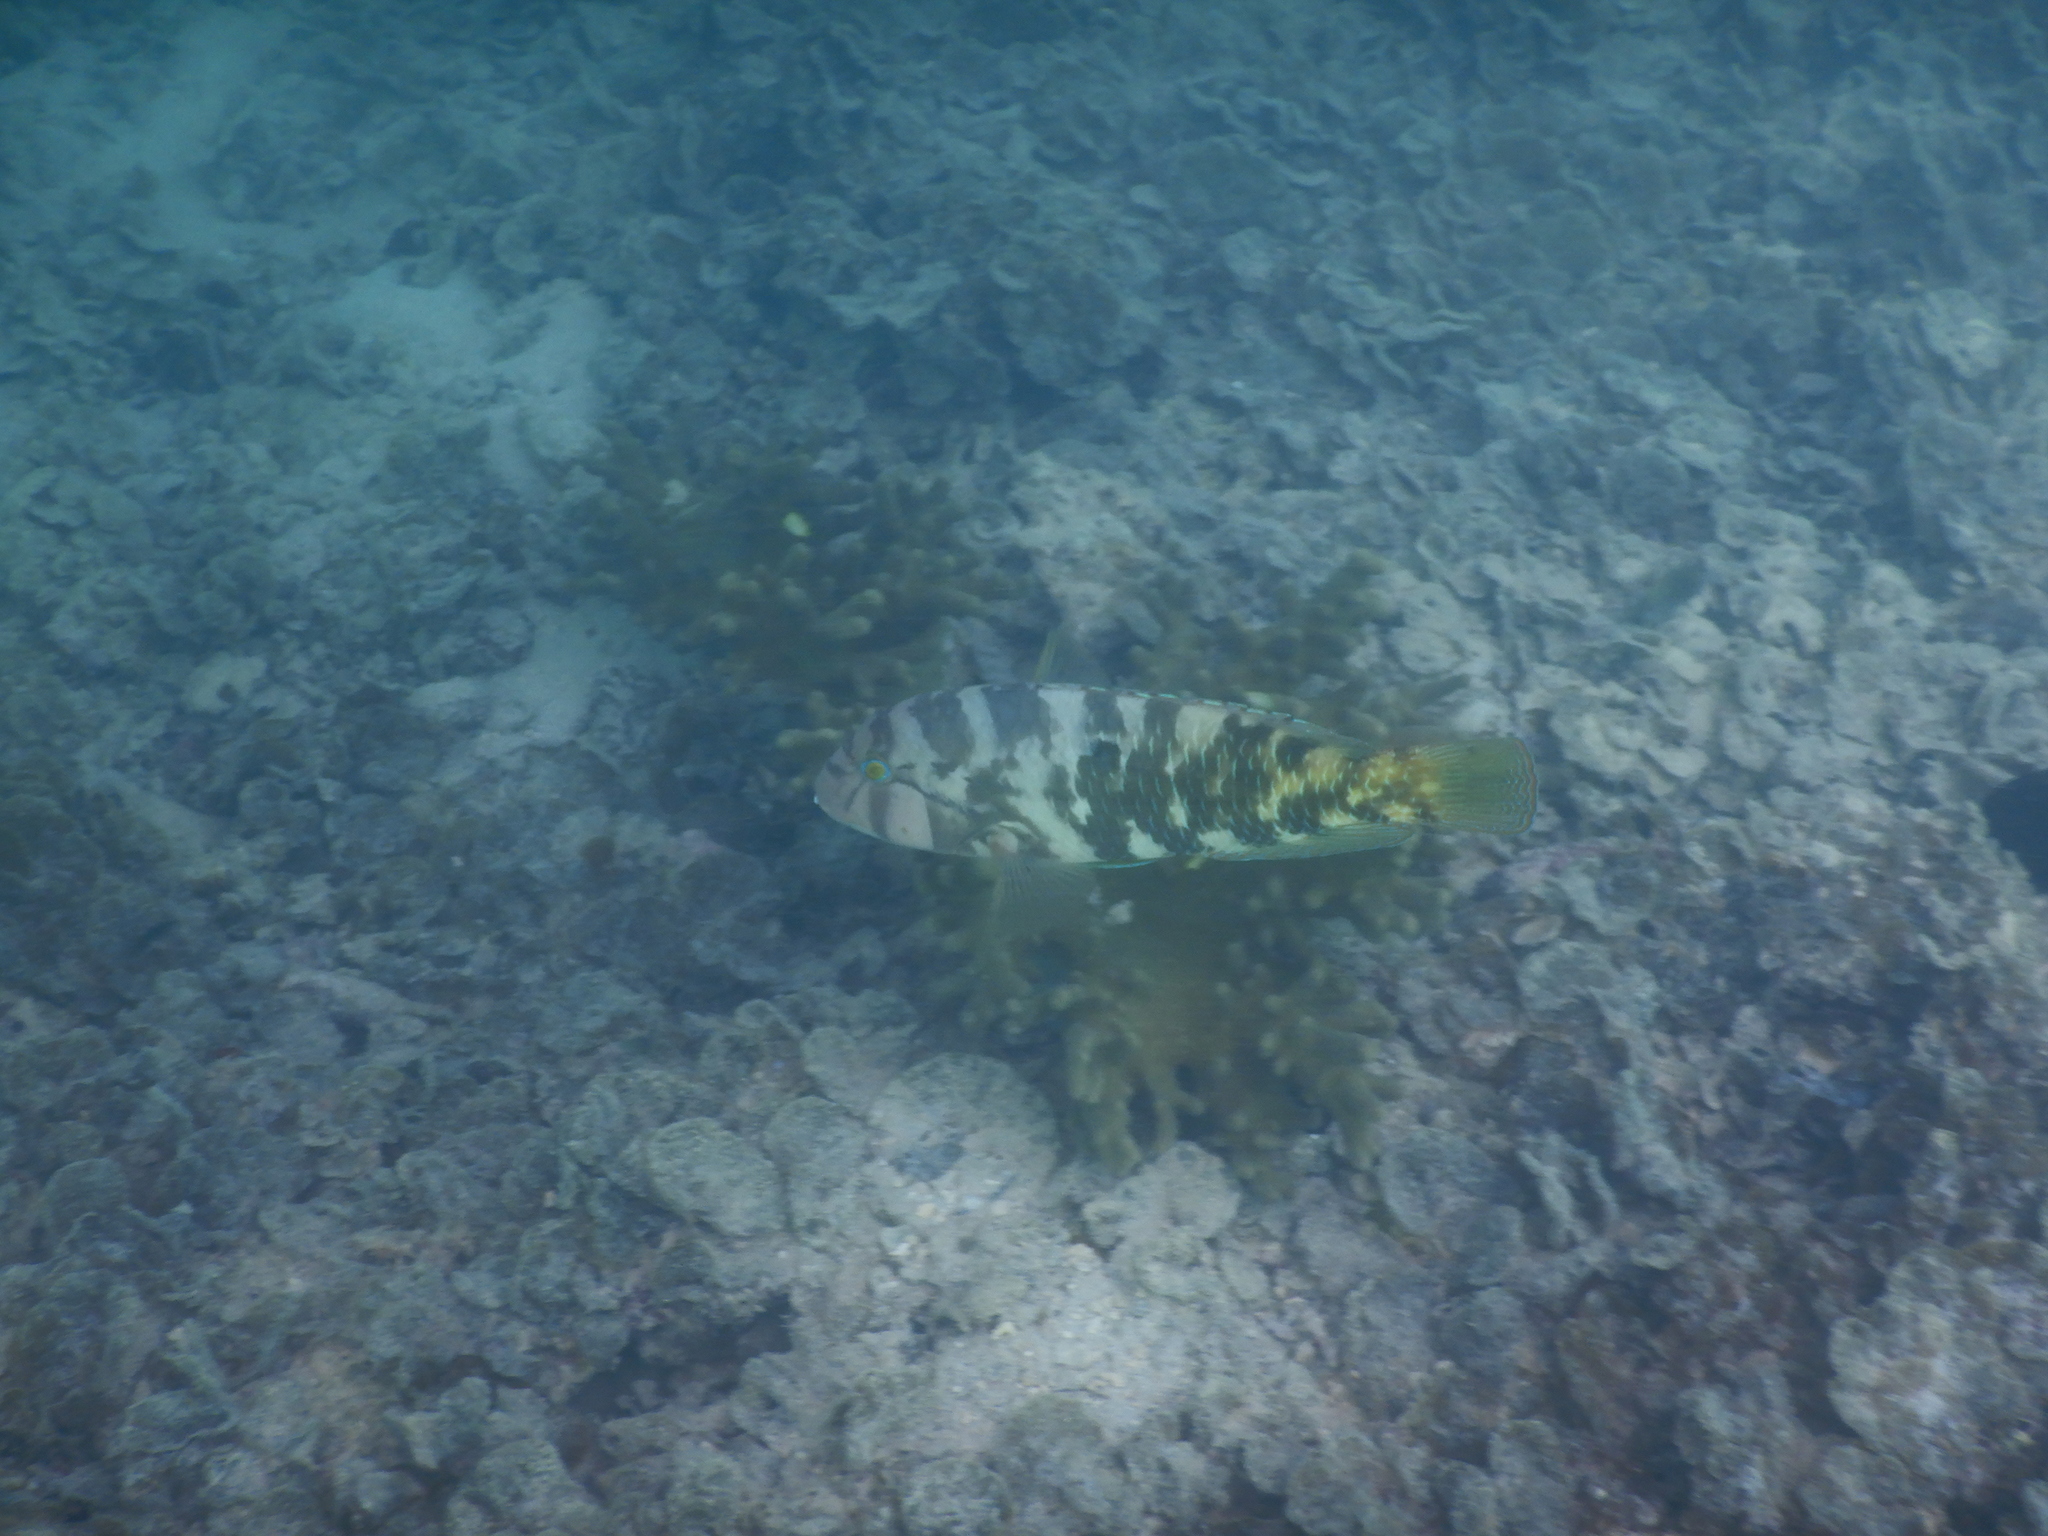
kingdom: Animalia
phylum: Chordata
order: Perciformes
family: Labridae
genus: Choerodon
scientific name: Choerodon graphicus
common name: Graphic tuskfish
